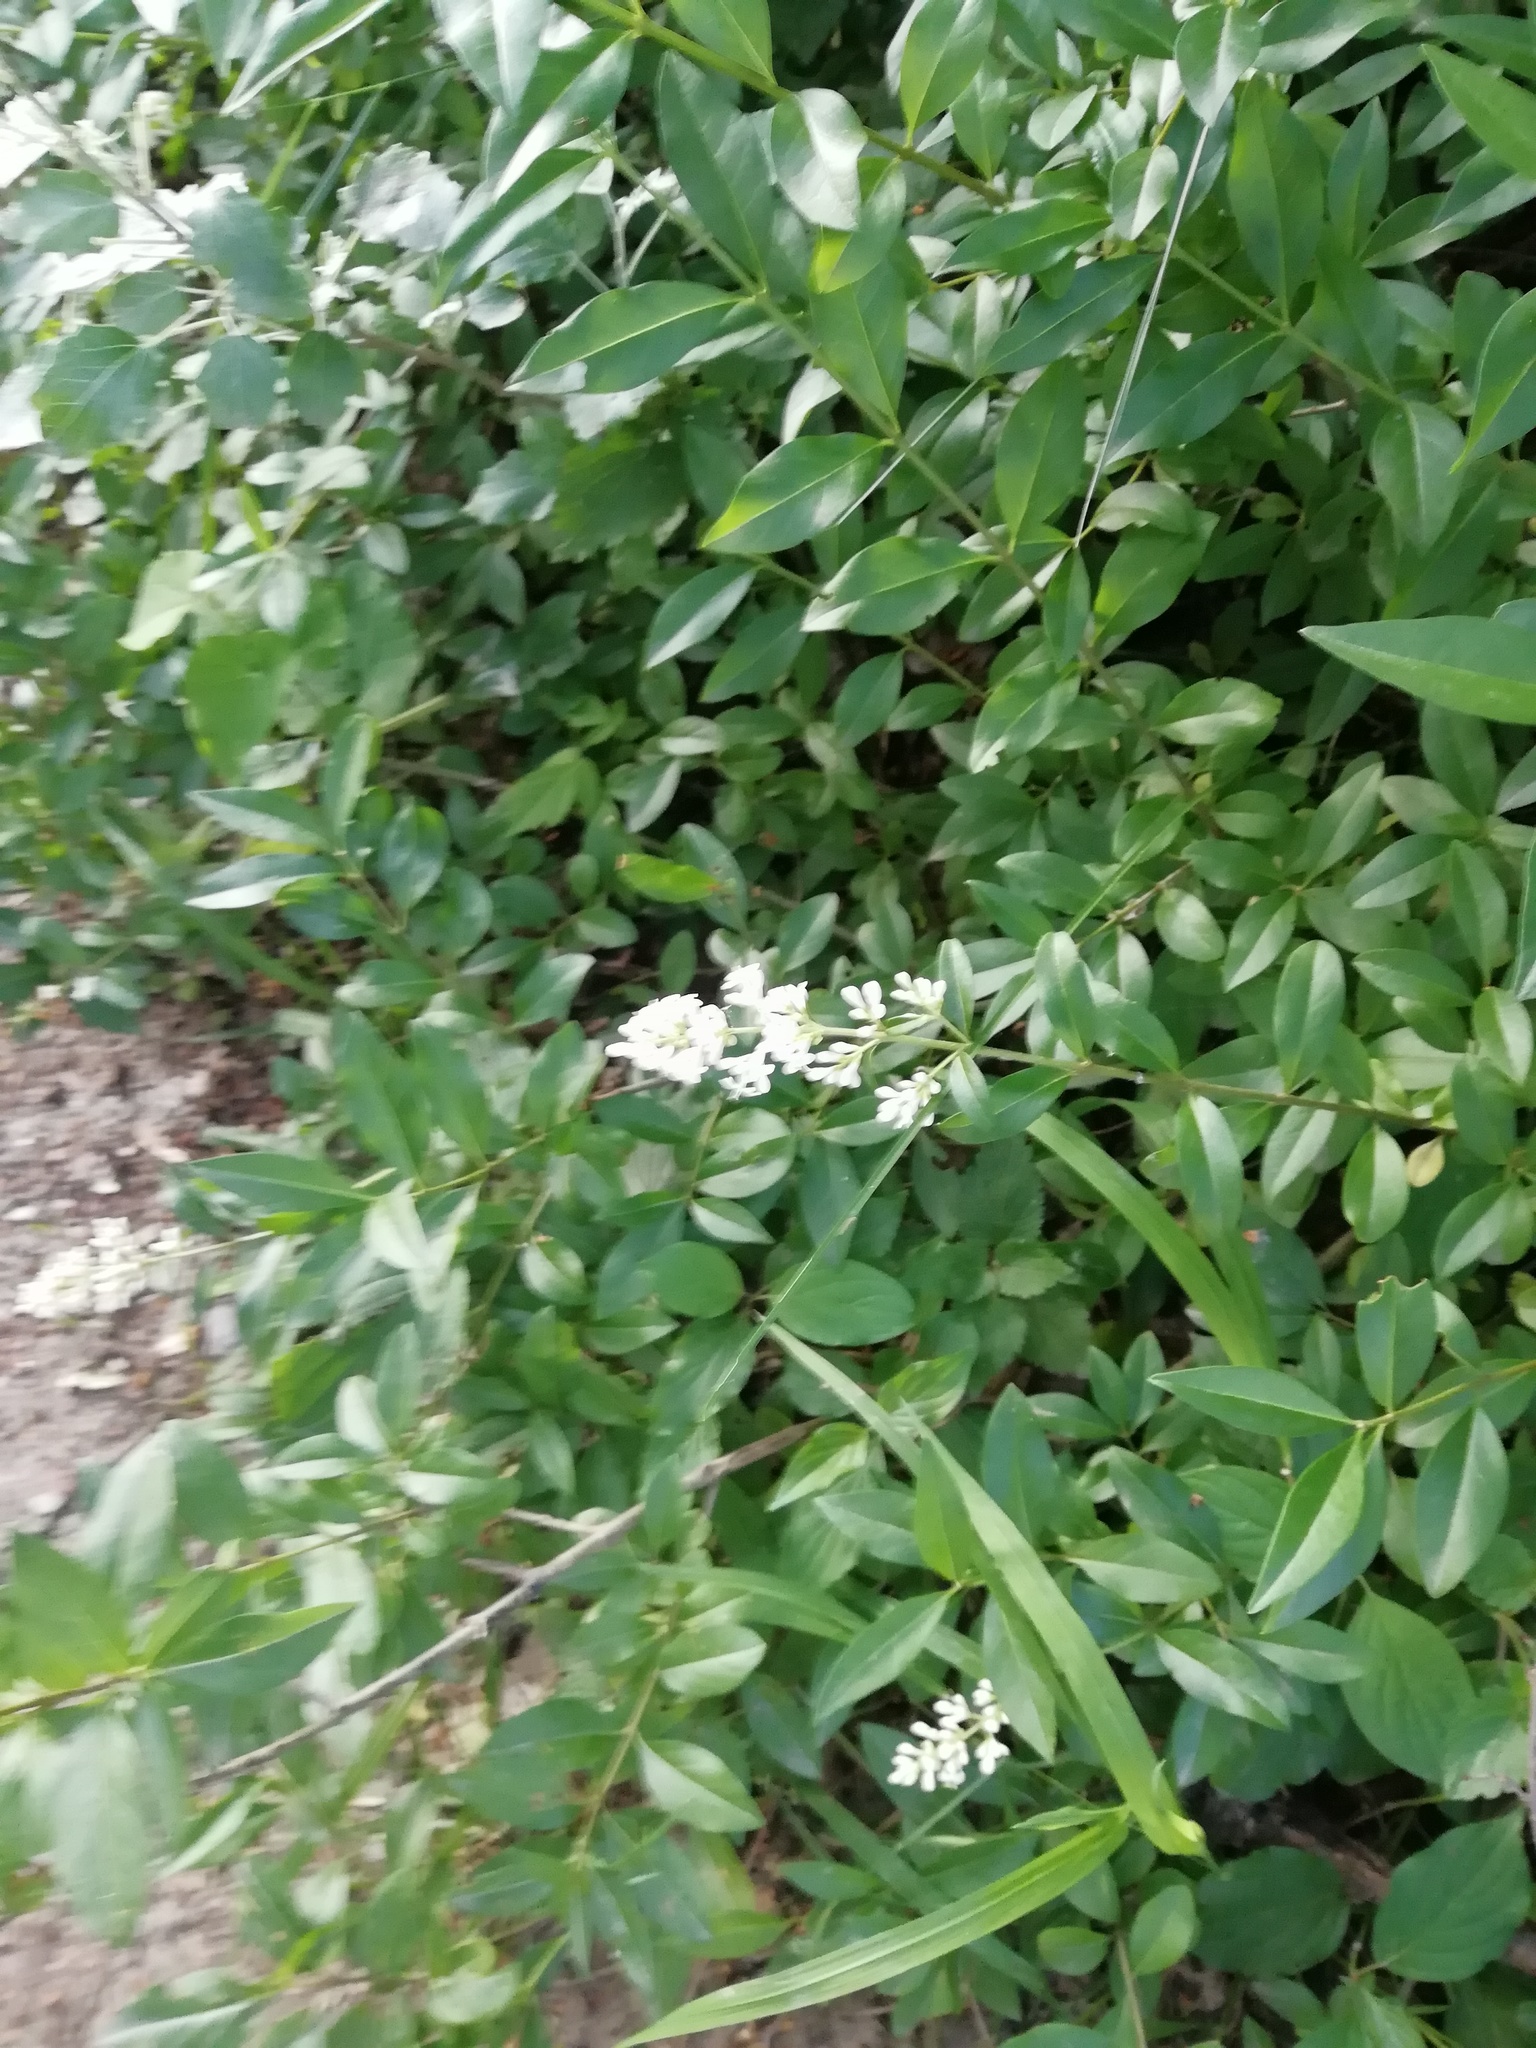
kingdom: Plantae
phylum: Tracheophyta
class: Magnoliopsida
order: Lamiales
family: Oleaceae
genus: Ligustrum
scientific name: Ligustrum vulgare
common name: Wild privet
